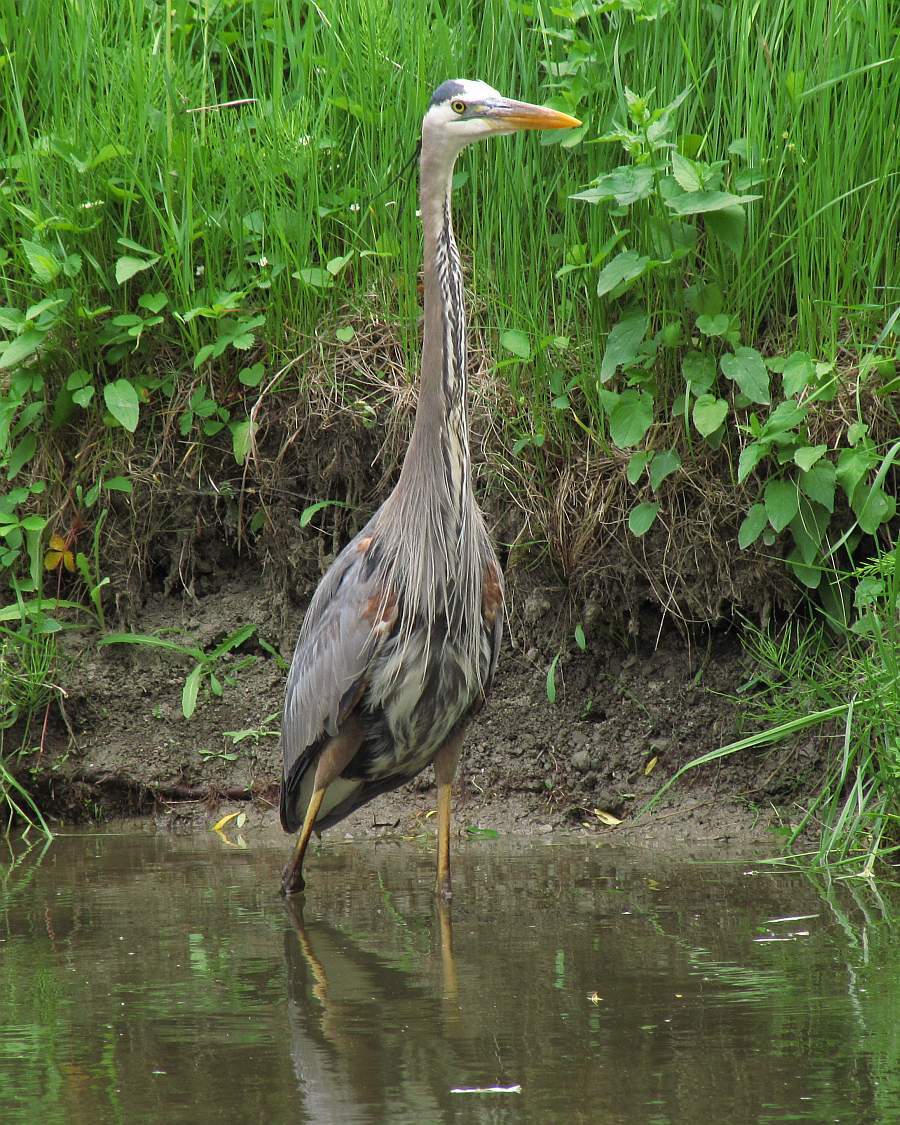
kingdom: Animalia
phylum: Chordata
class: Aves
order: Pelecaniformes
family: Ardeidae
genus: Ardea
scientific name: Ardea herodias
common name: Great blue heron
